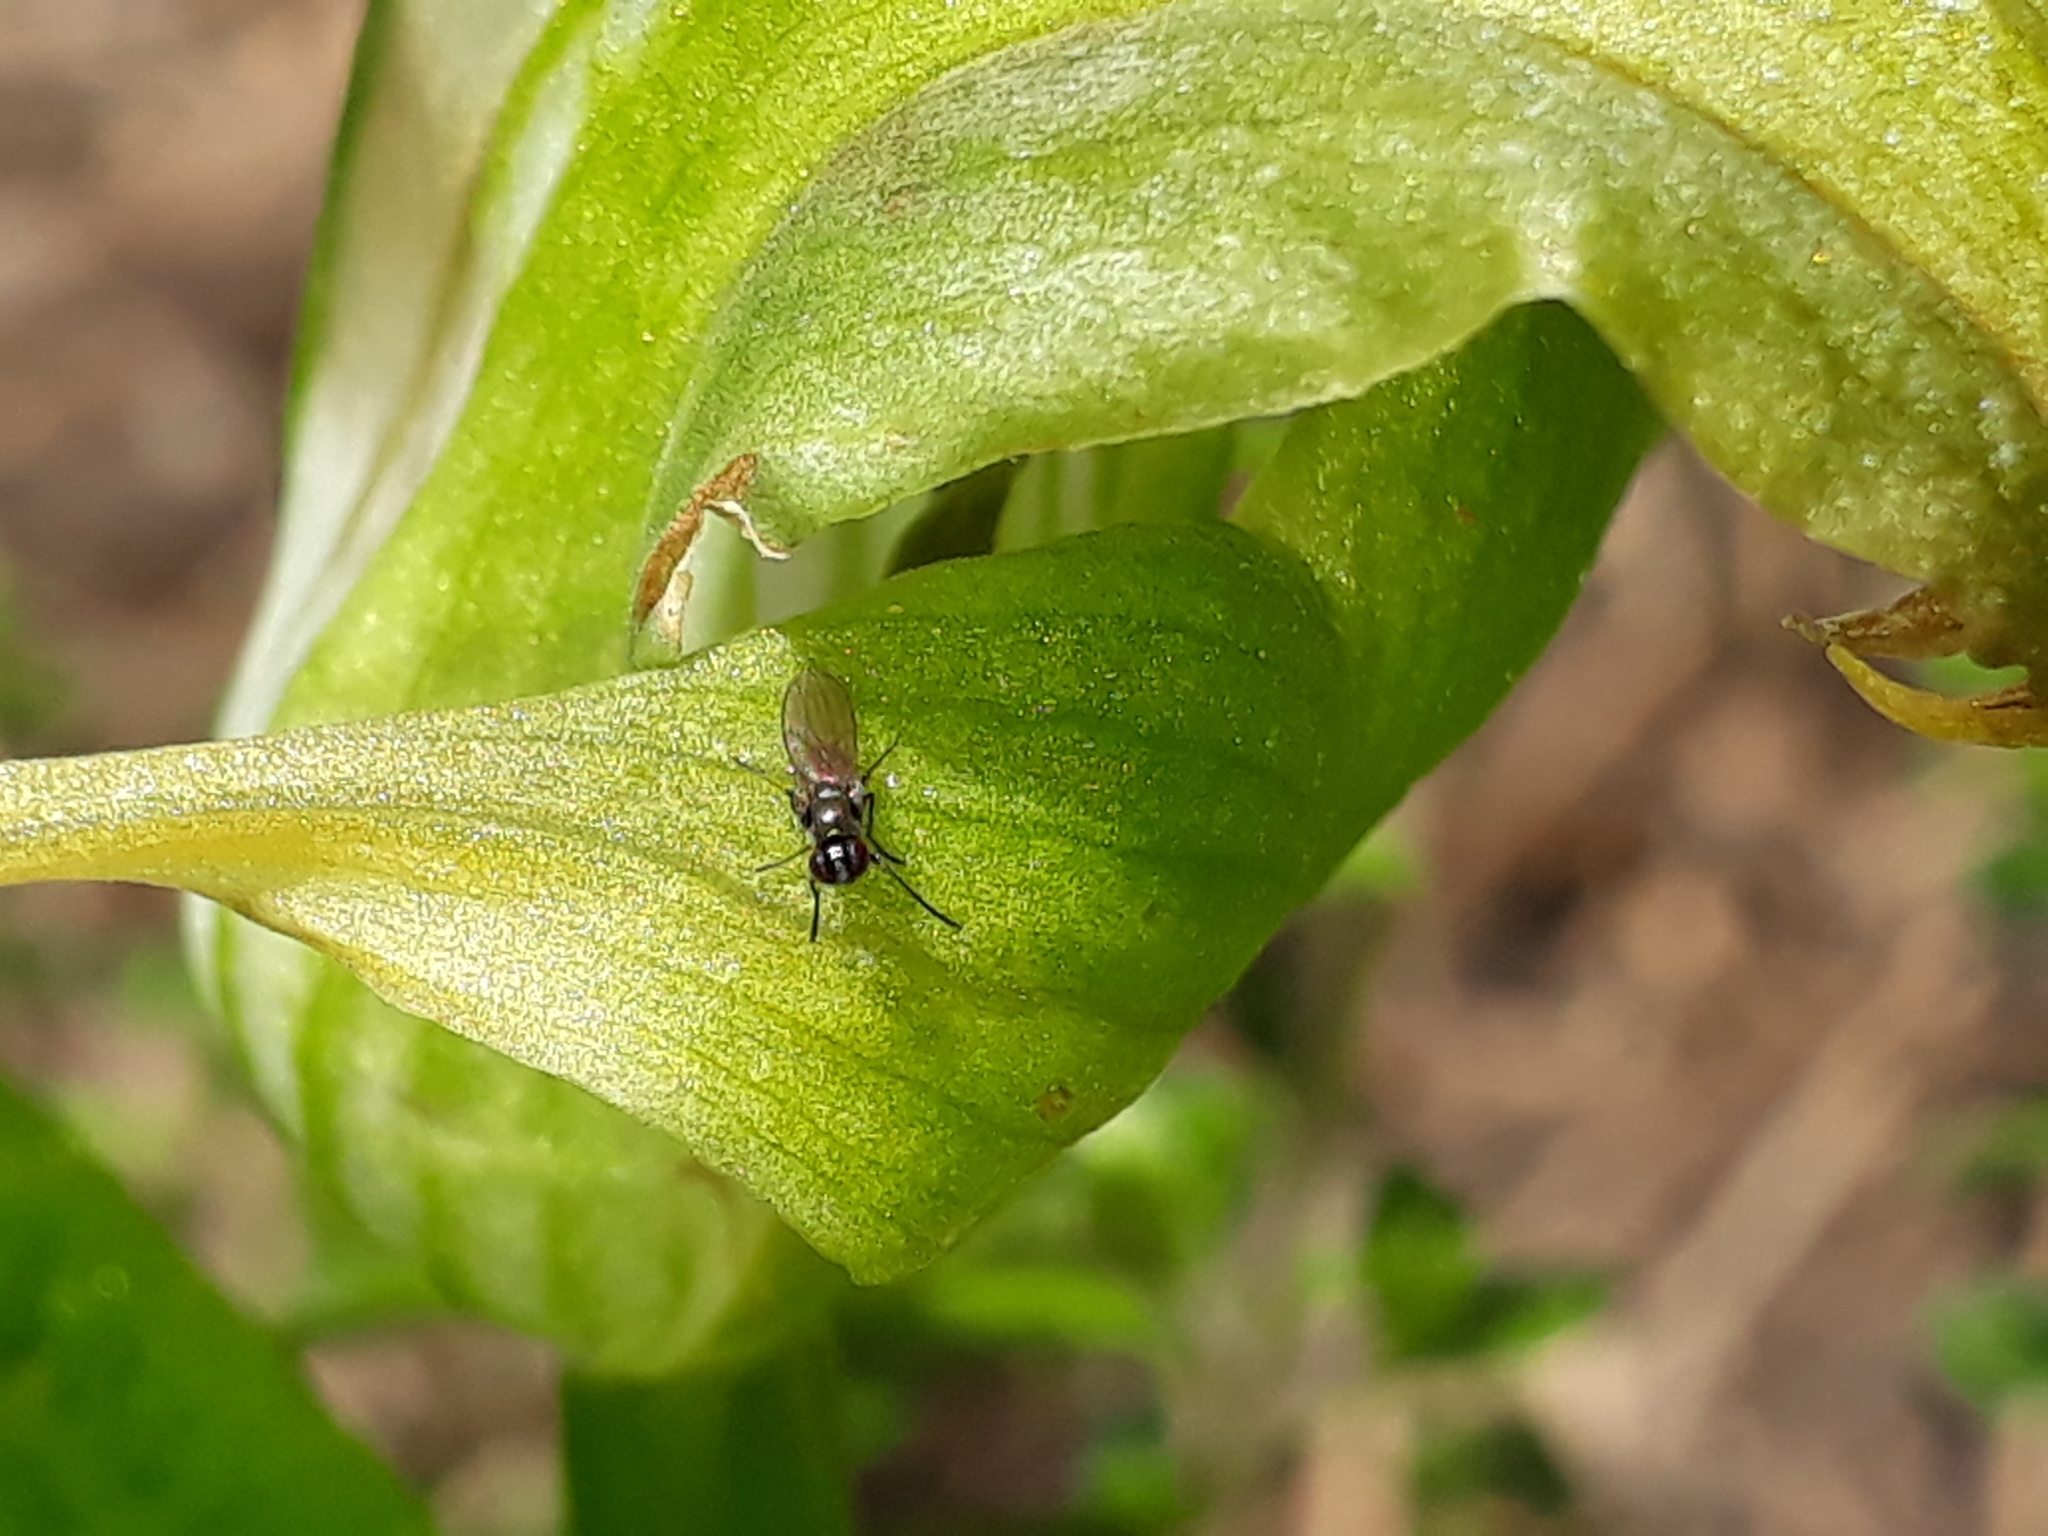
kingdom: Animalia
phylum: Arthropoda
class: Insecta
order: Diptera
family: Ephydridae
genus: Hydrellia
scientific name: Hydrellia tritici
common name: Shore fly
